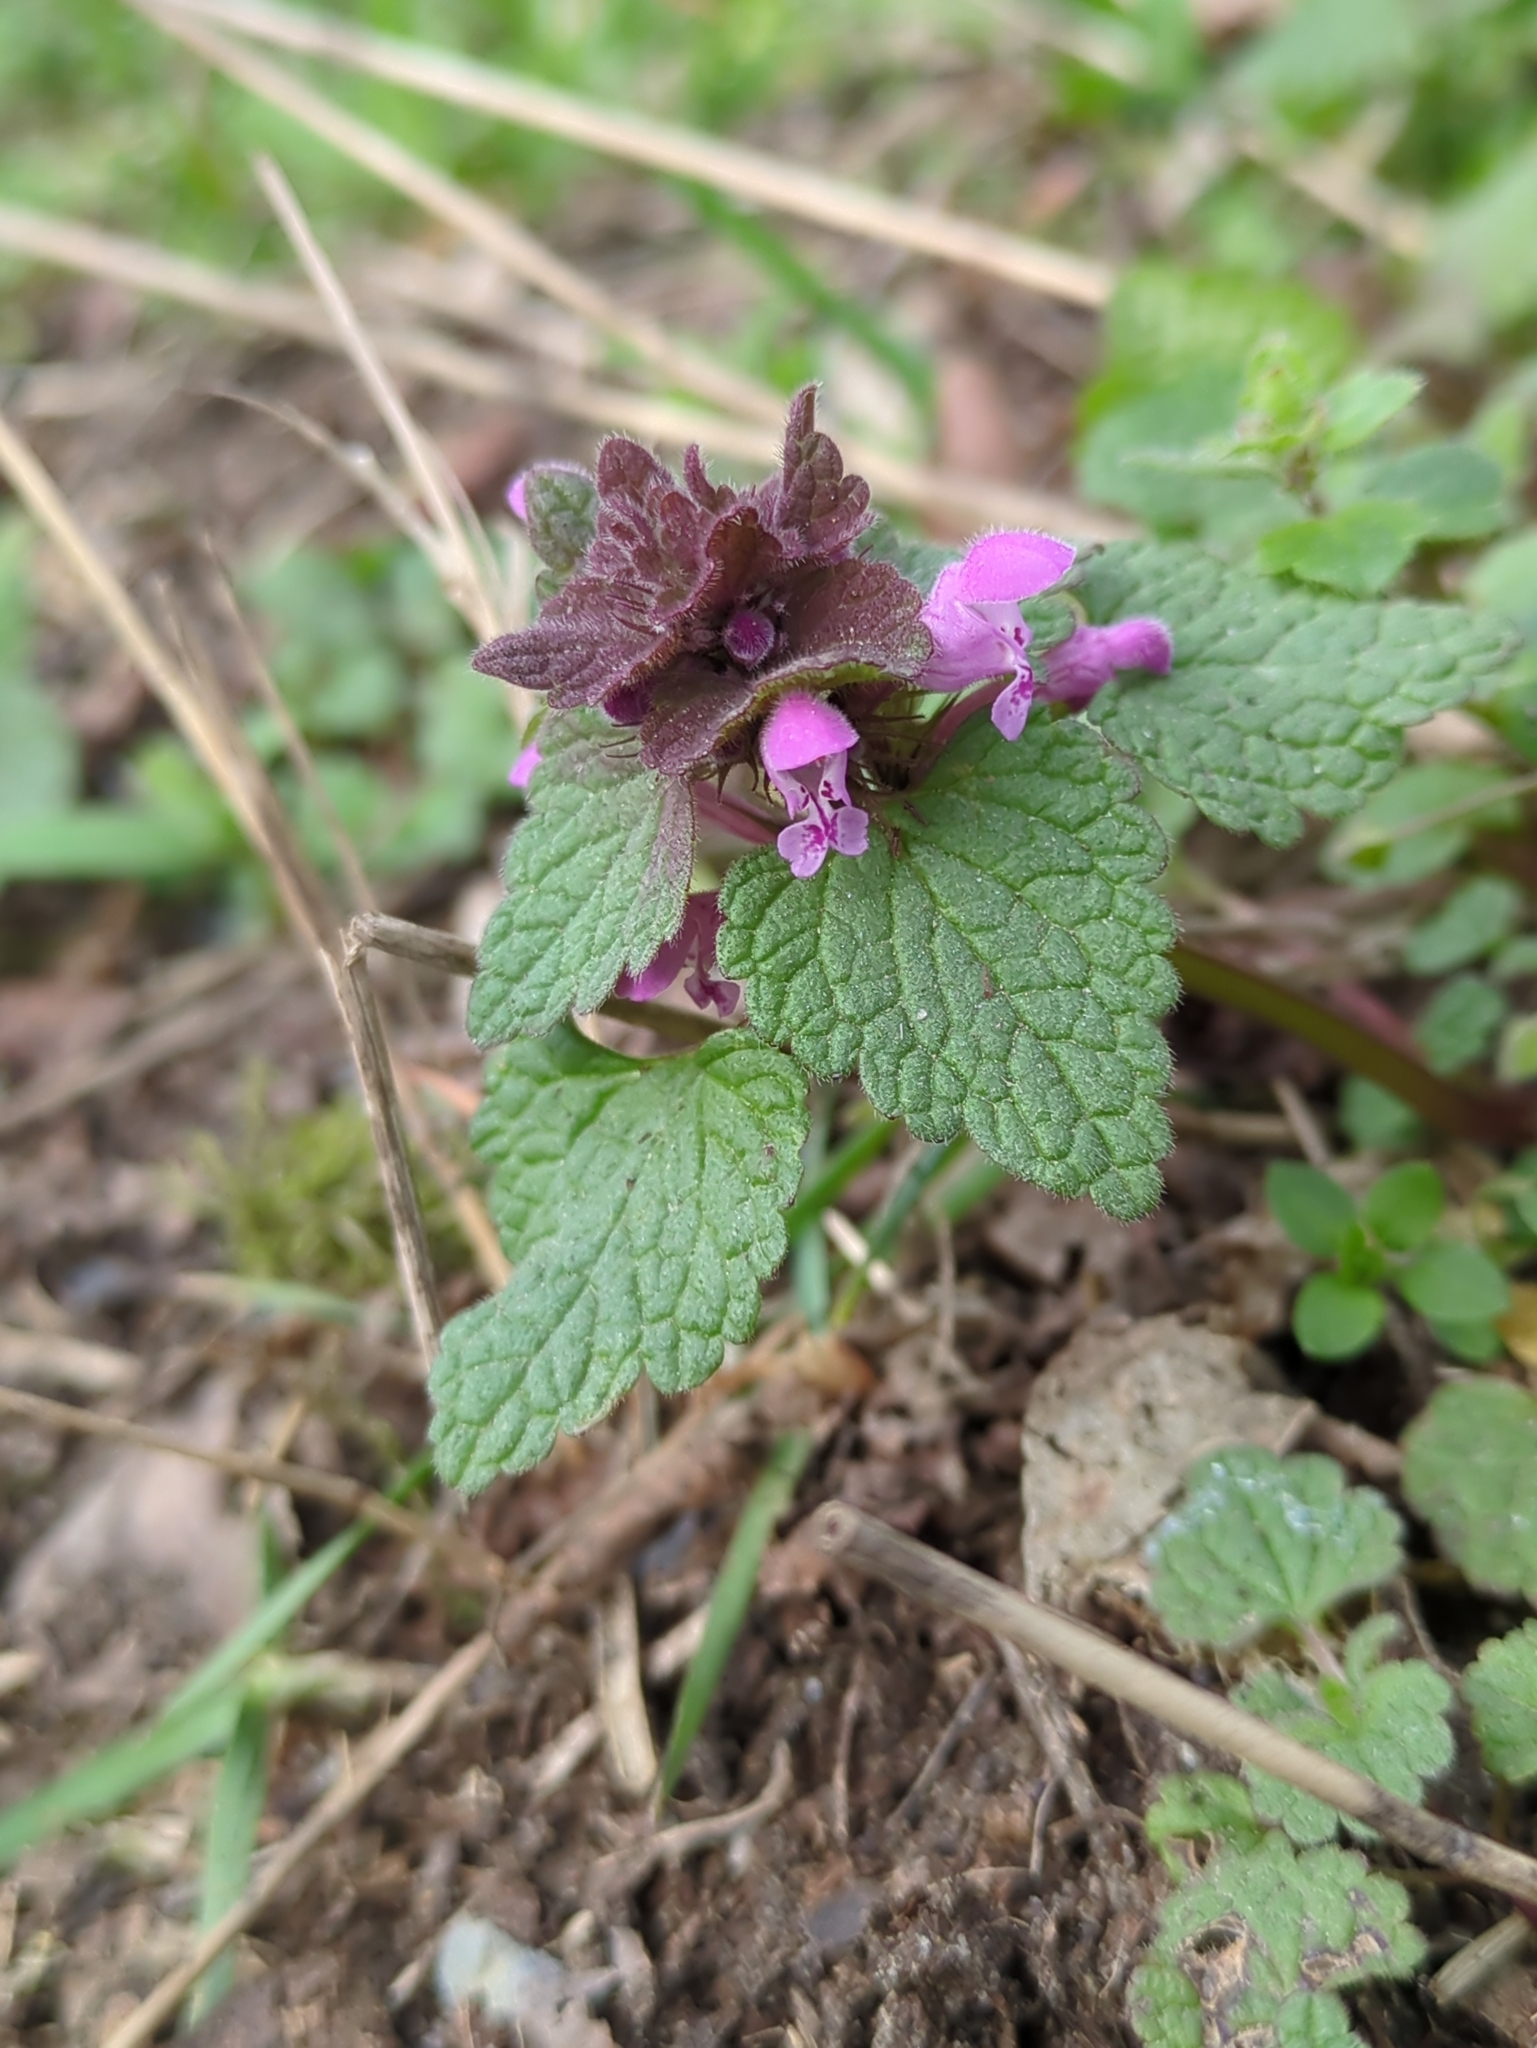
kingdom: Plantae
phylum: Tracheophyta
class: Magnoliopsida
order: Lamiales
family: Lamiaceae
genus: Lamium
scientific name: Lamium purpureum
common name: Red dead-nettle
